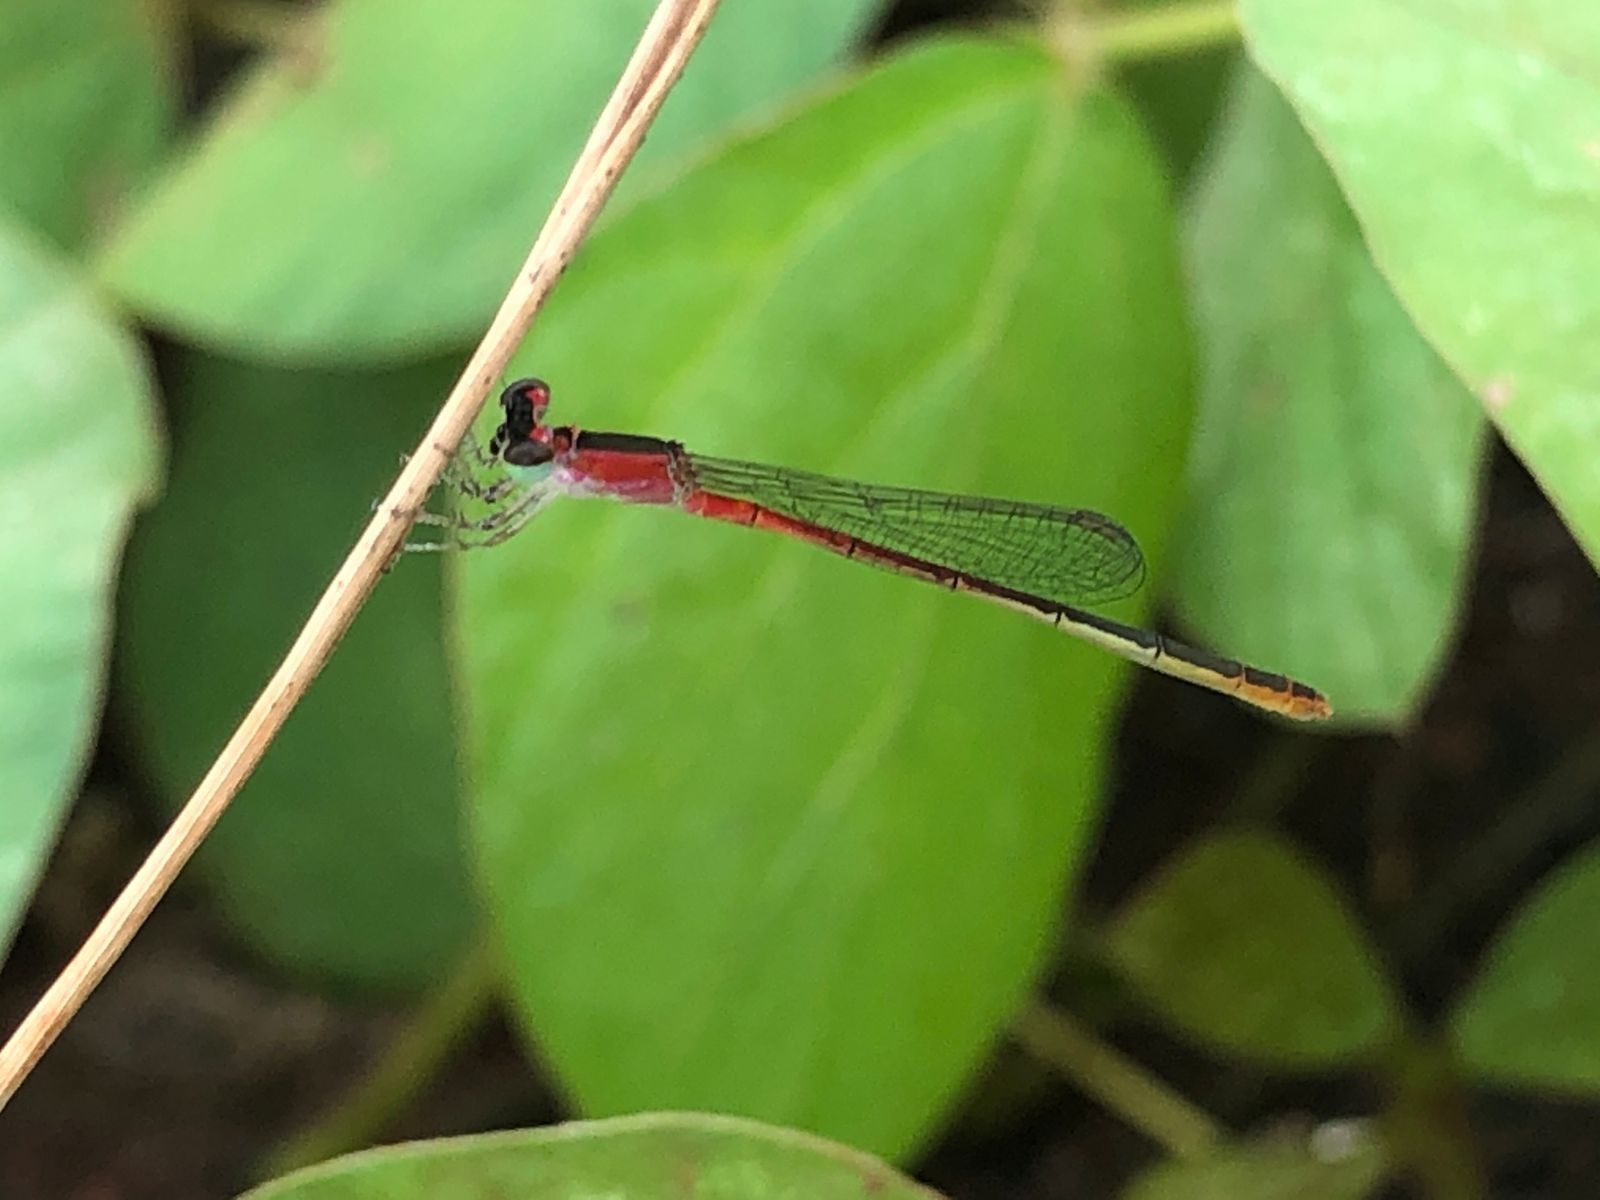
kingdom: Animalia
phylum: Arthropoda
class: Insecta
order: Odonata
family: Coenagrionidae
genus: Agriocnemis
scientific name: Agriocnemis pygmaea
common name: Pygmy wisp
